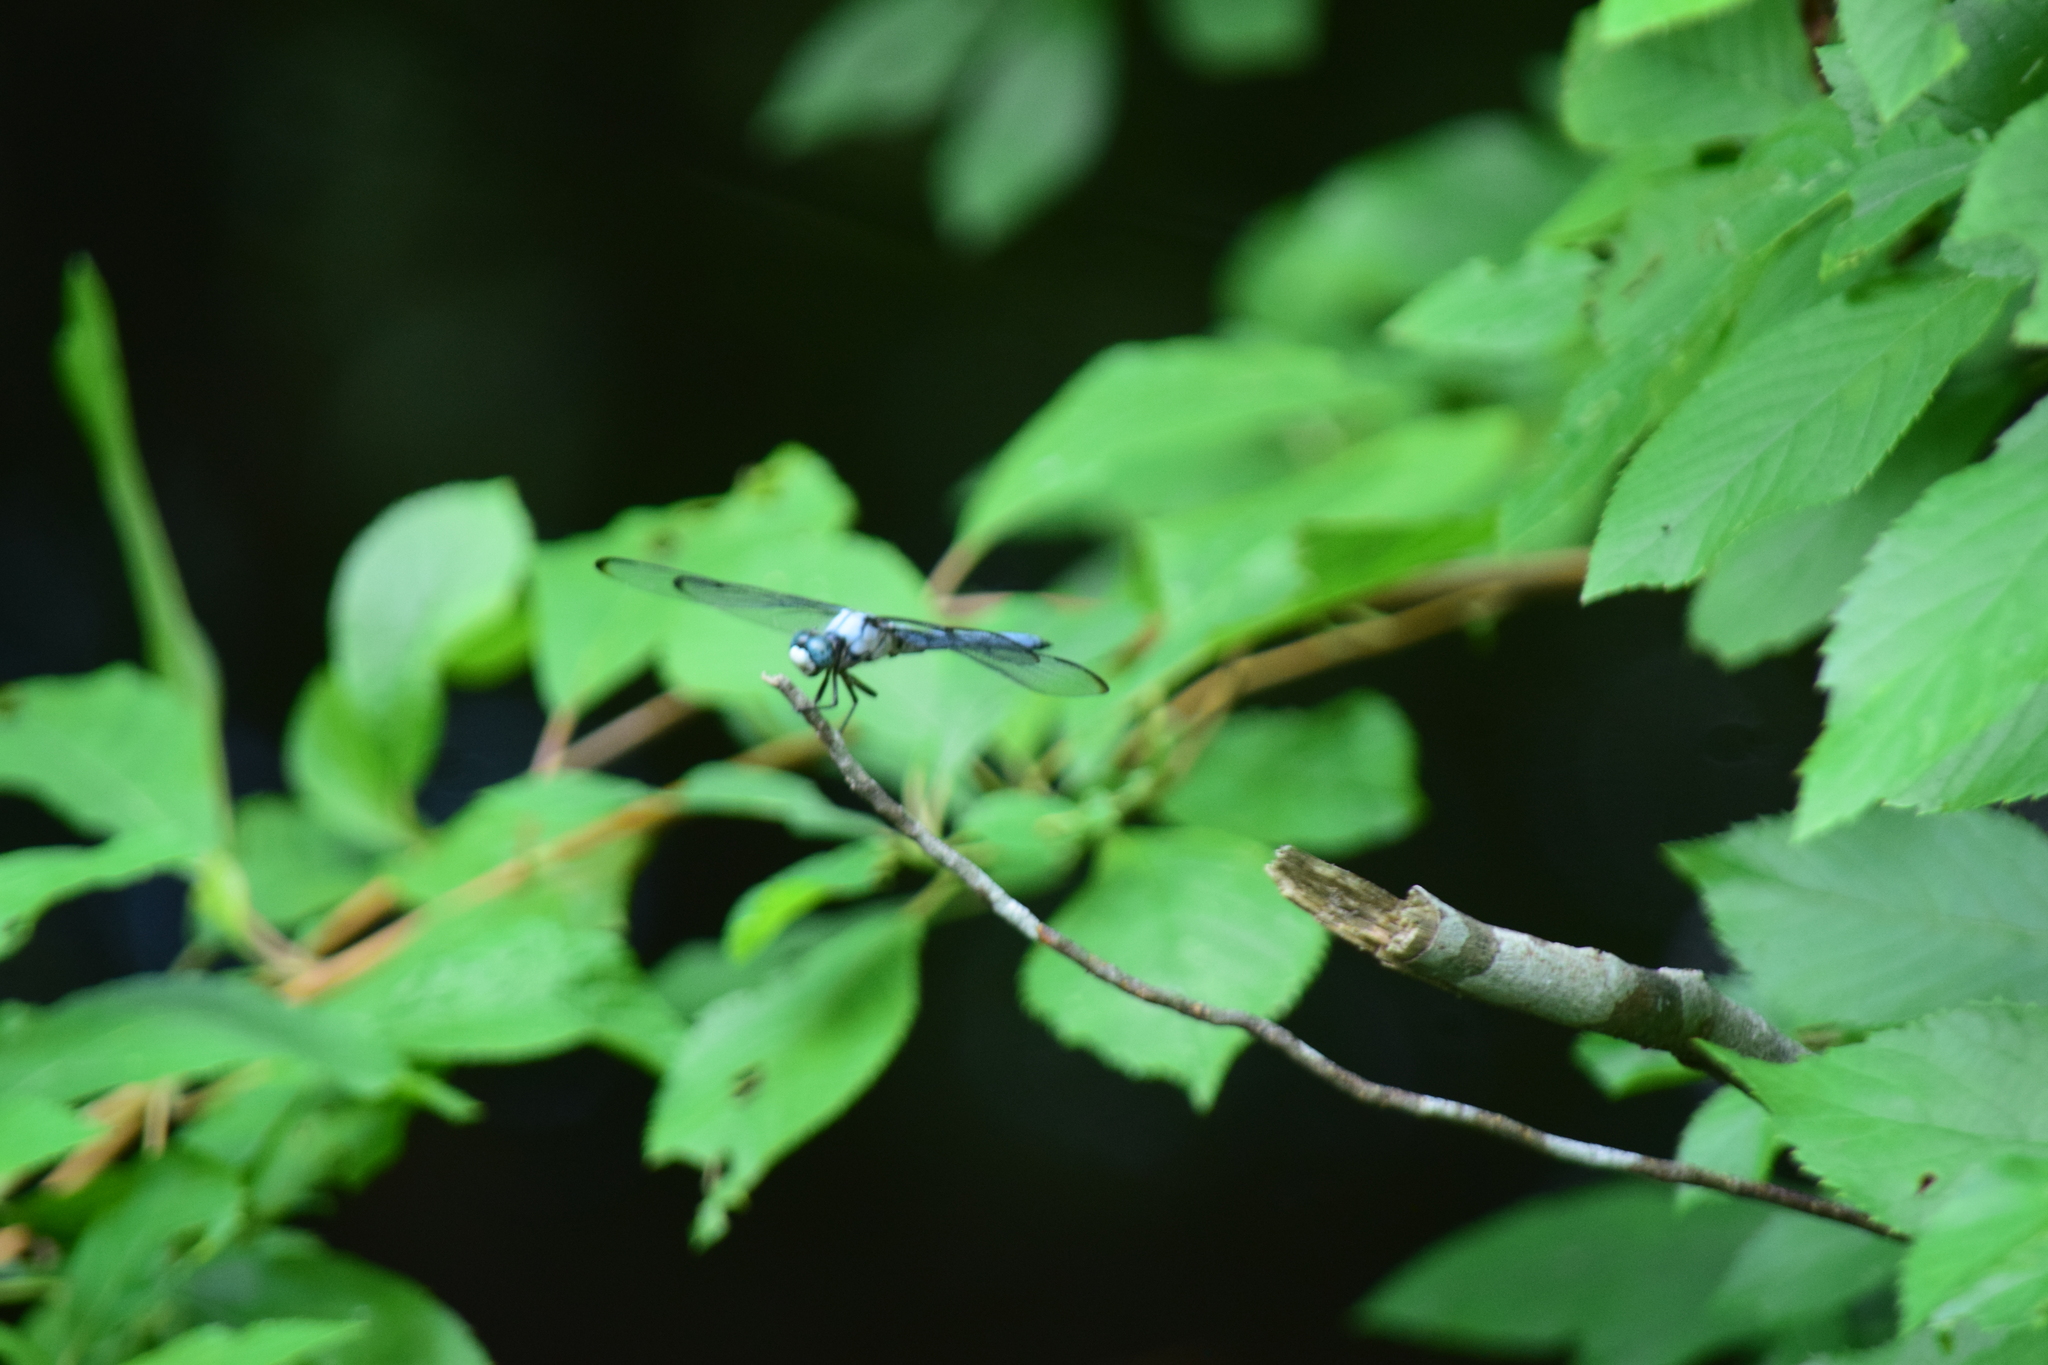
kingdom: Animalia
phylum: Arthropoda
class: Insecta
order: Odonata
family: Libellulidae
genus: Libellula
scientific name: Libellula vibrans
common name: Great blue skimmer
